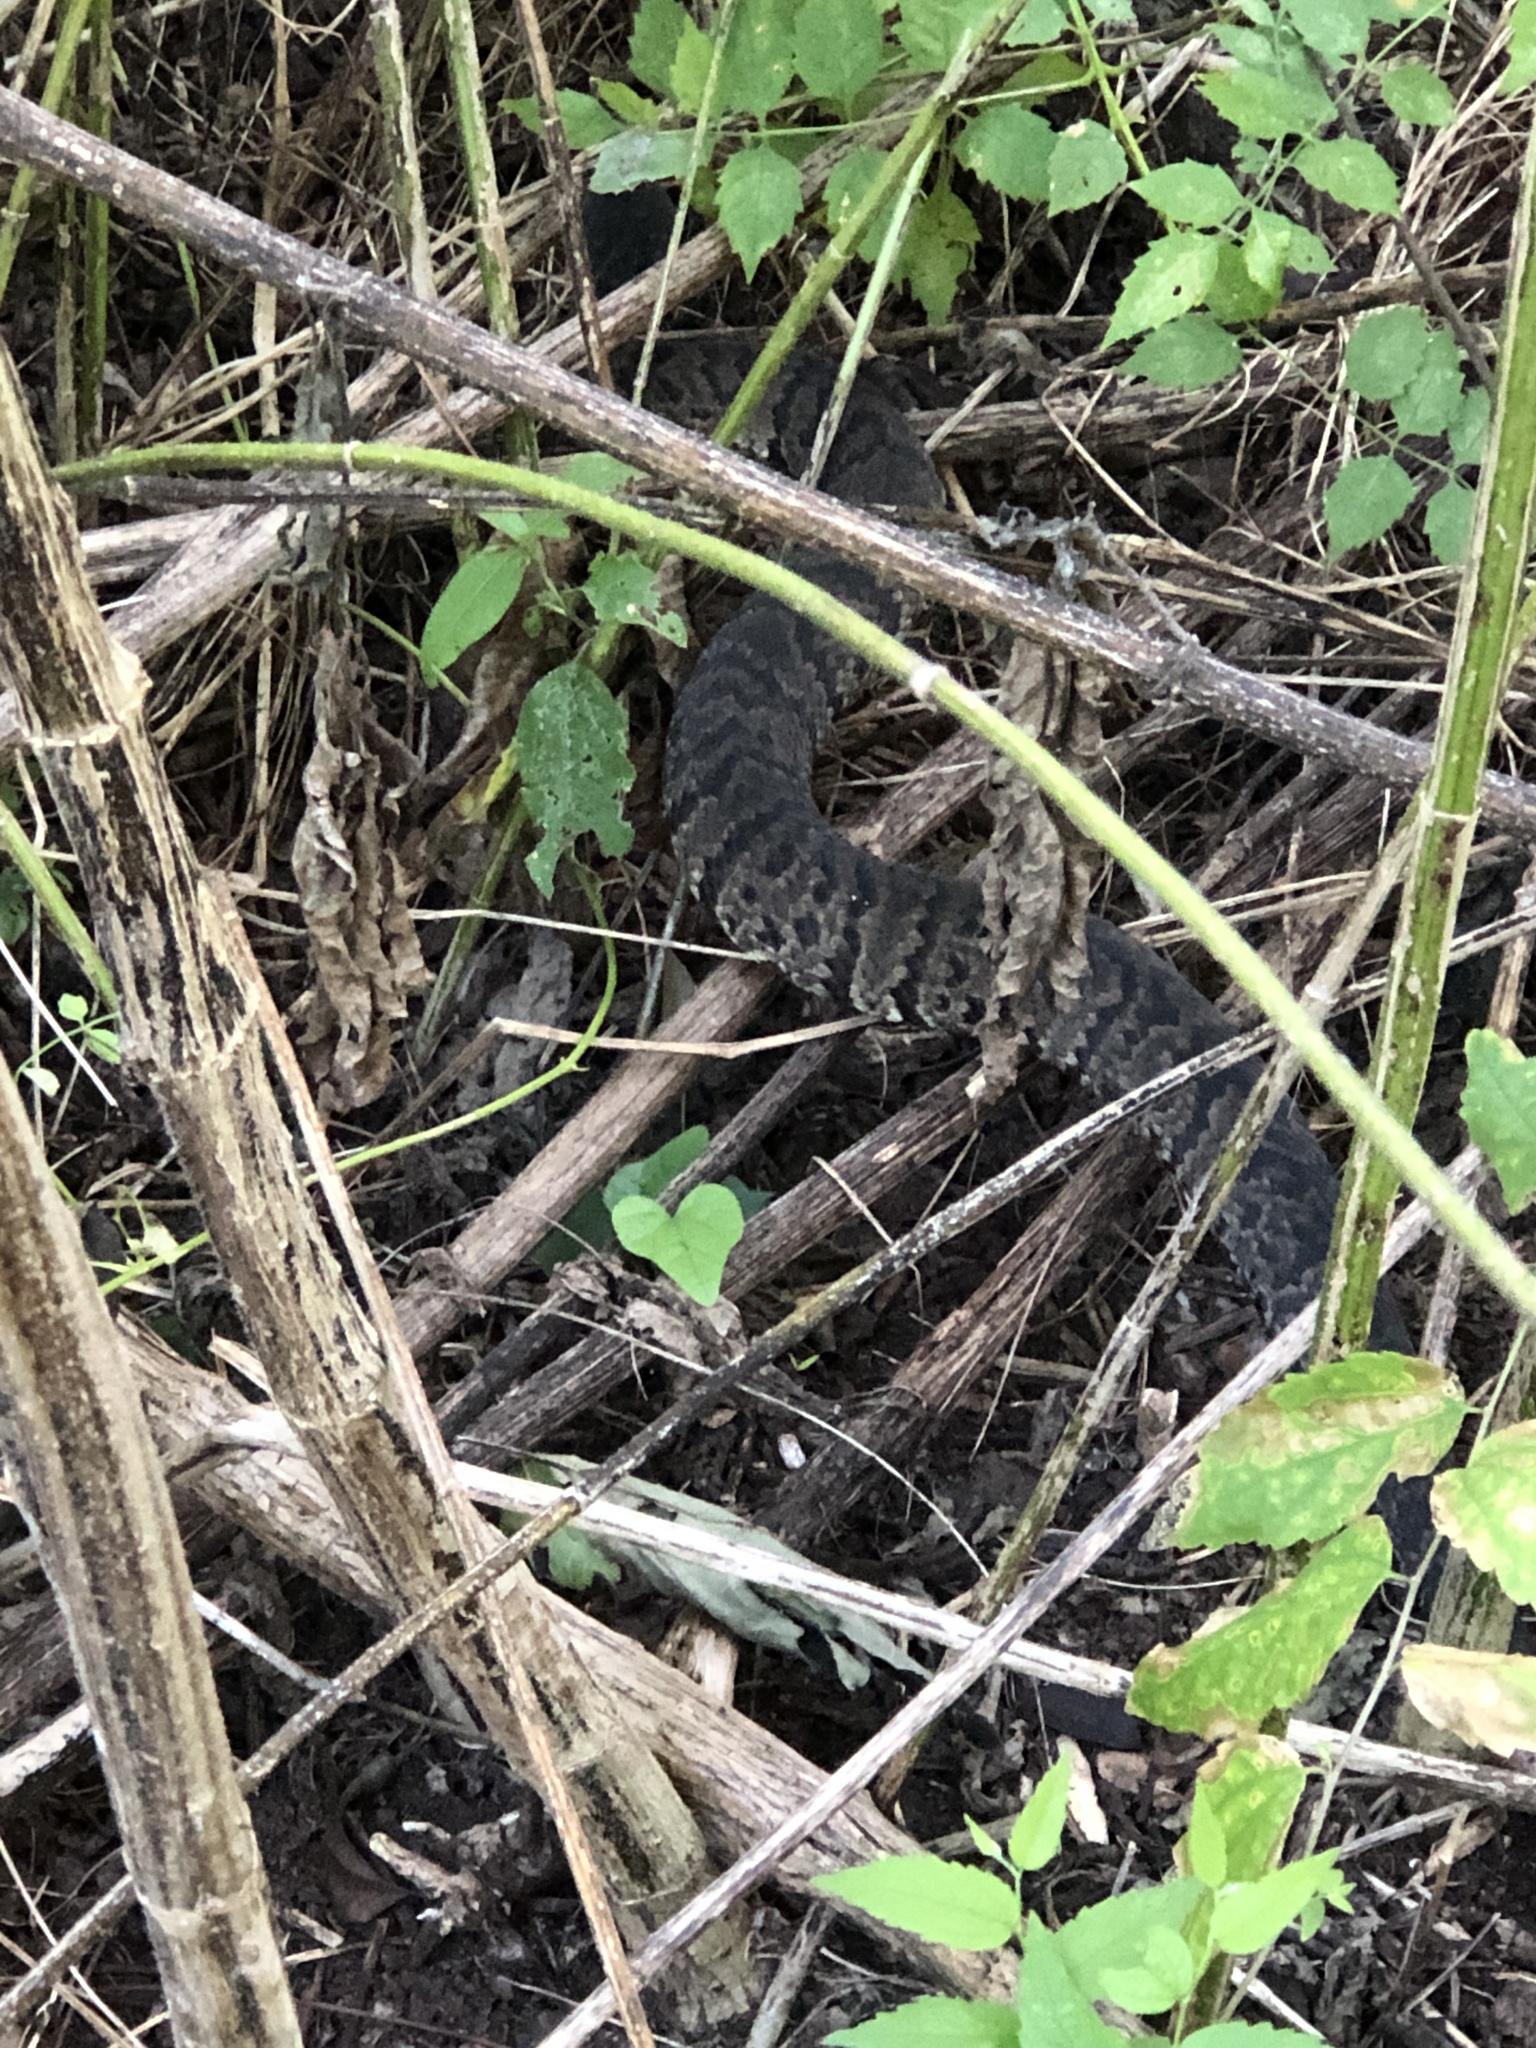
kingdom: Animalia
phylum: Chordata
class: Squamata
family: Viperidae
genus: Agkistrodon
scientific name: Agkistrodon piscivorus
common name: Cottonmouth
